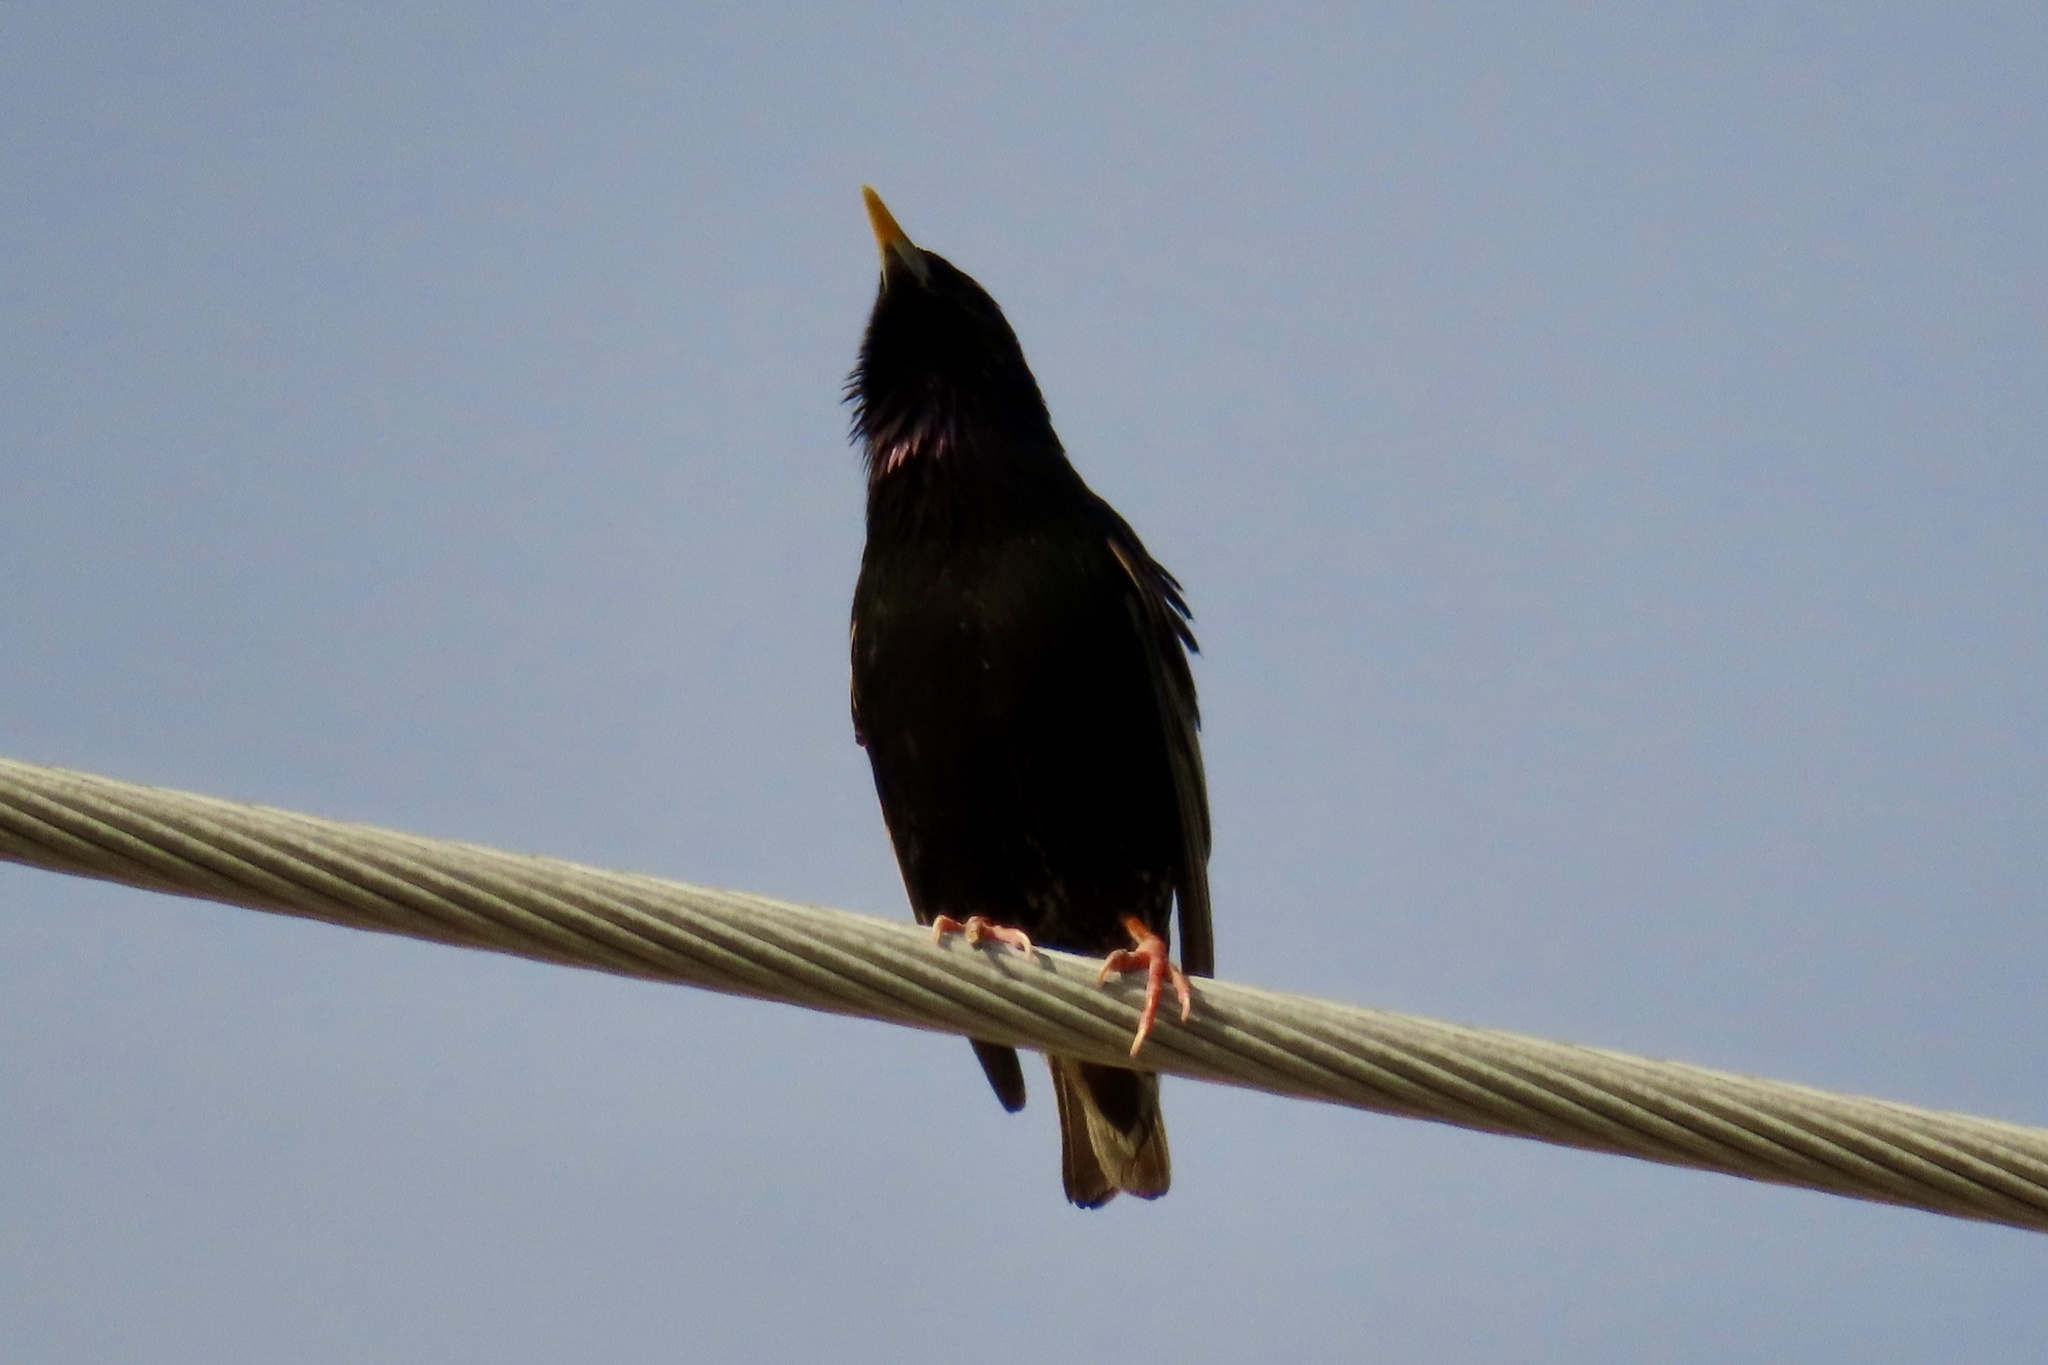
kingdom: Animalia
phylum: Chordata
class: Aves
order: Passeriformes
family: Sturnidae
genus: Sturnus
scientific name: Sturnus vulgaris
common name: Common starling
